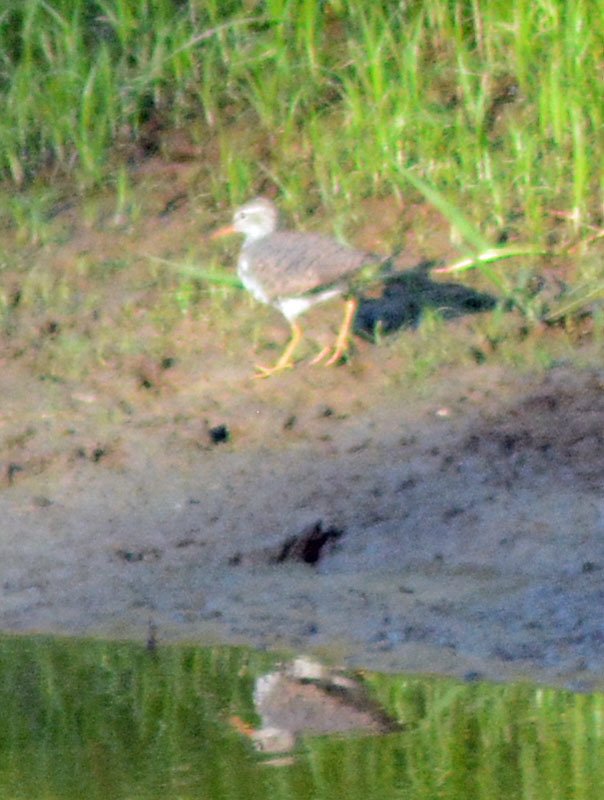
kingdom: Animalia
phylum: Chordata
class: Aves
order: Charadriiformes
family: Scolopacidae
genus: Actitis
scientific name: Actitis macularius
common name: Spotted sandpiper
